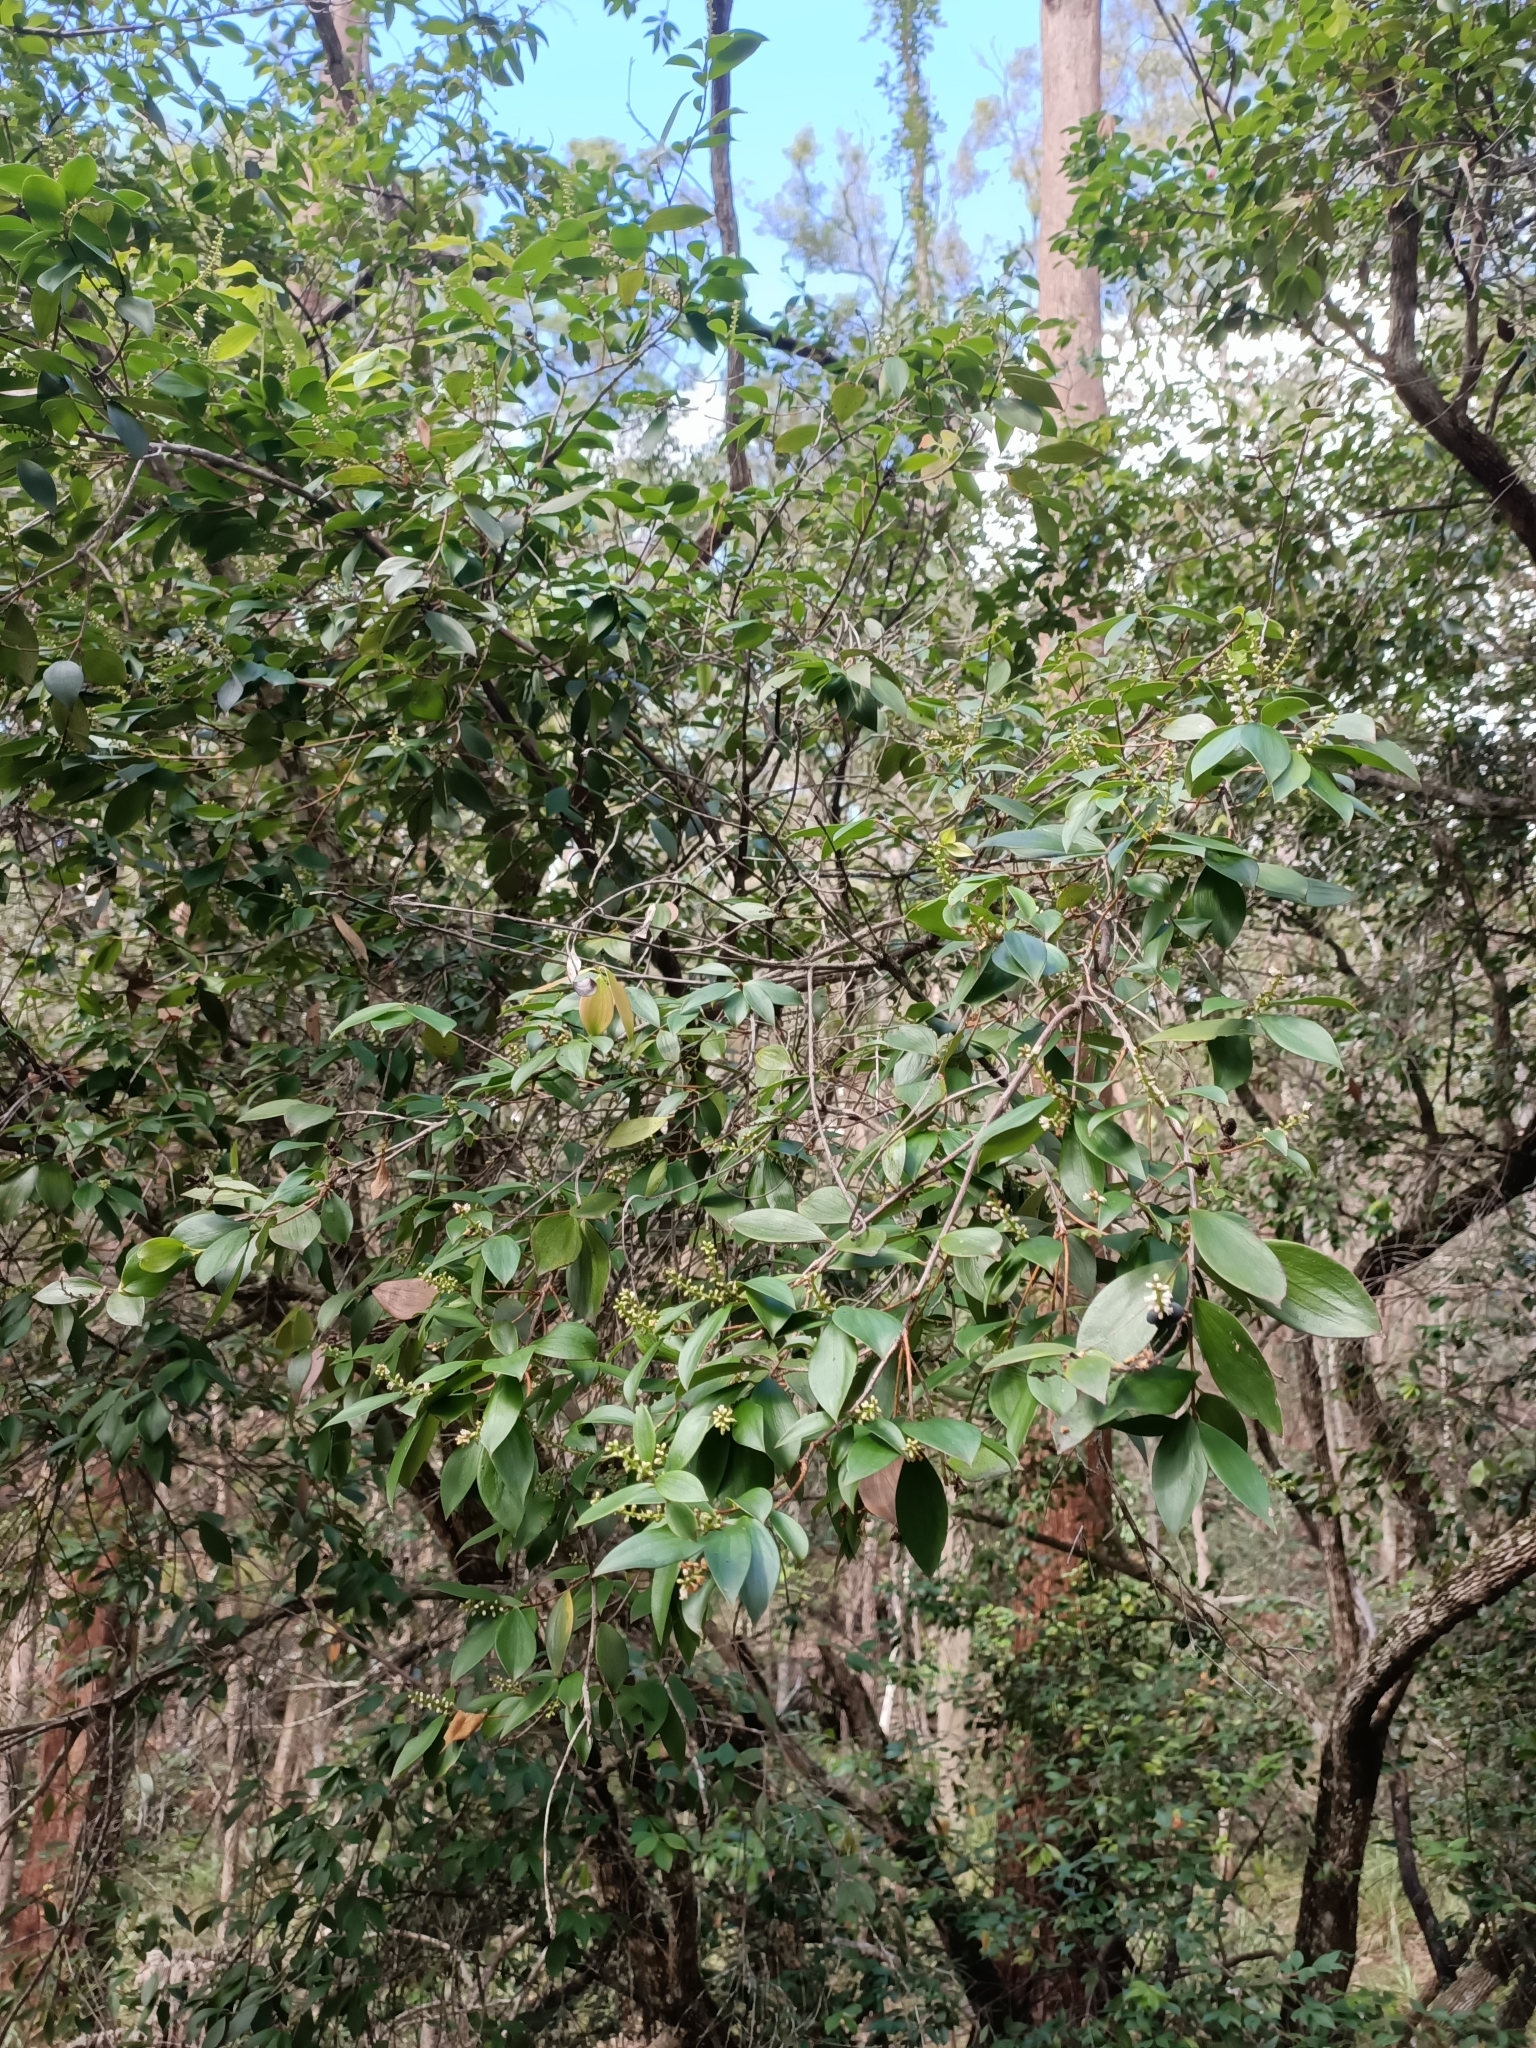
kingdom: Plantae
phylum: Tracheophyta
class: Magnoliopsida
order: Ericales
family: Ericaceae
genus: Trochocarpa
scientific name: Trochocarpa laurina
